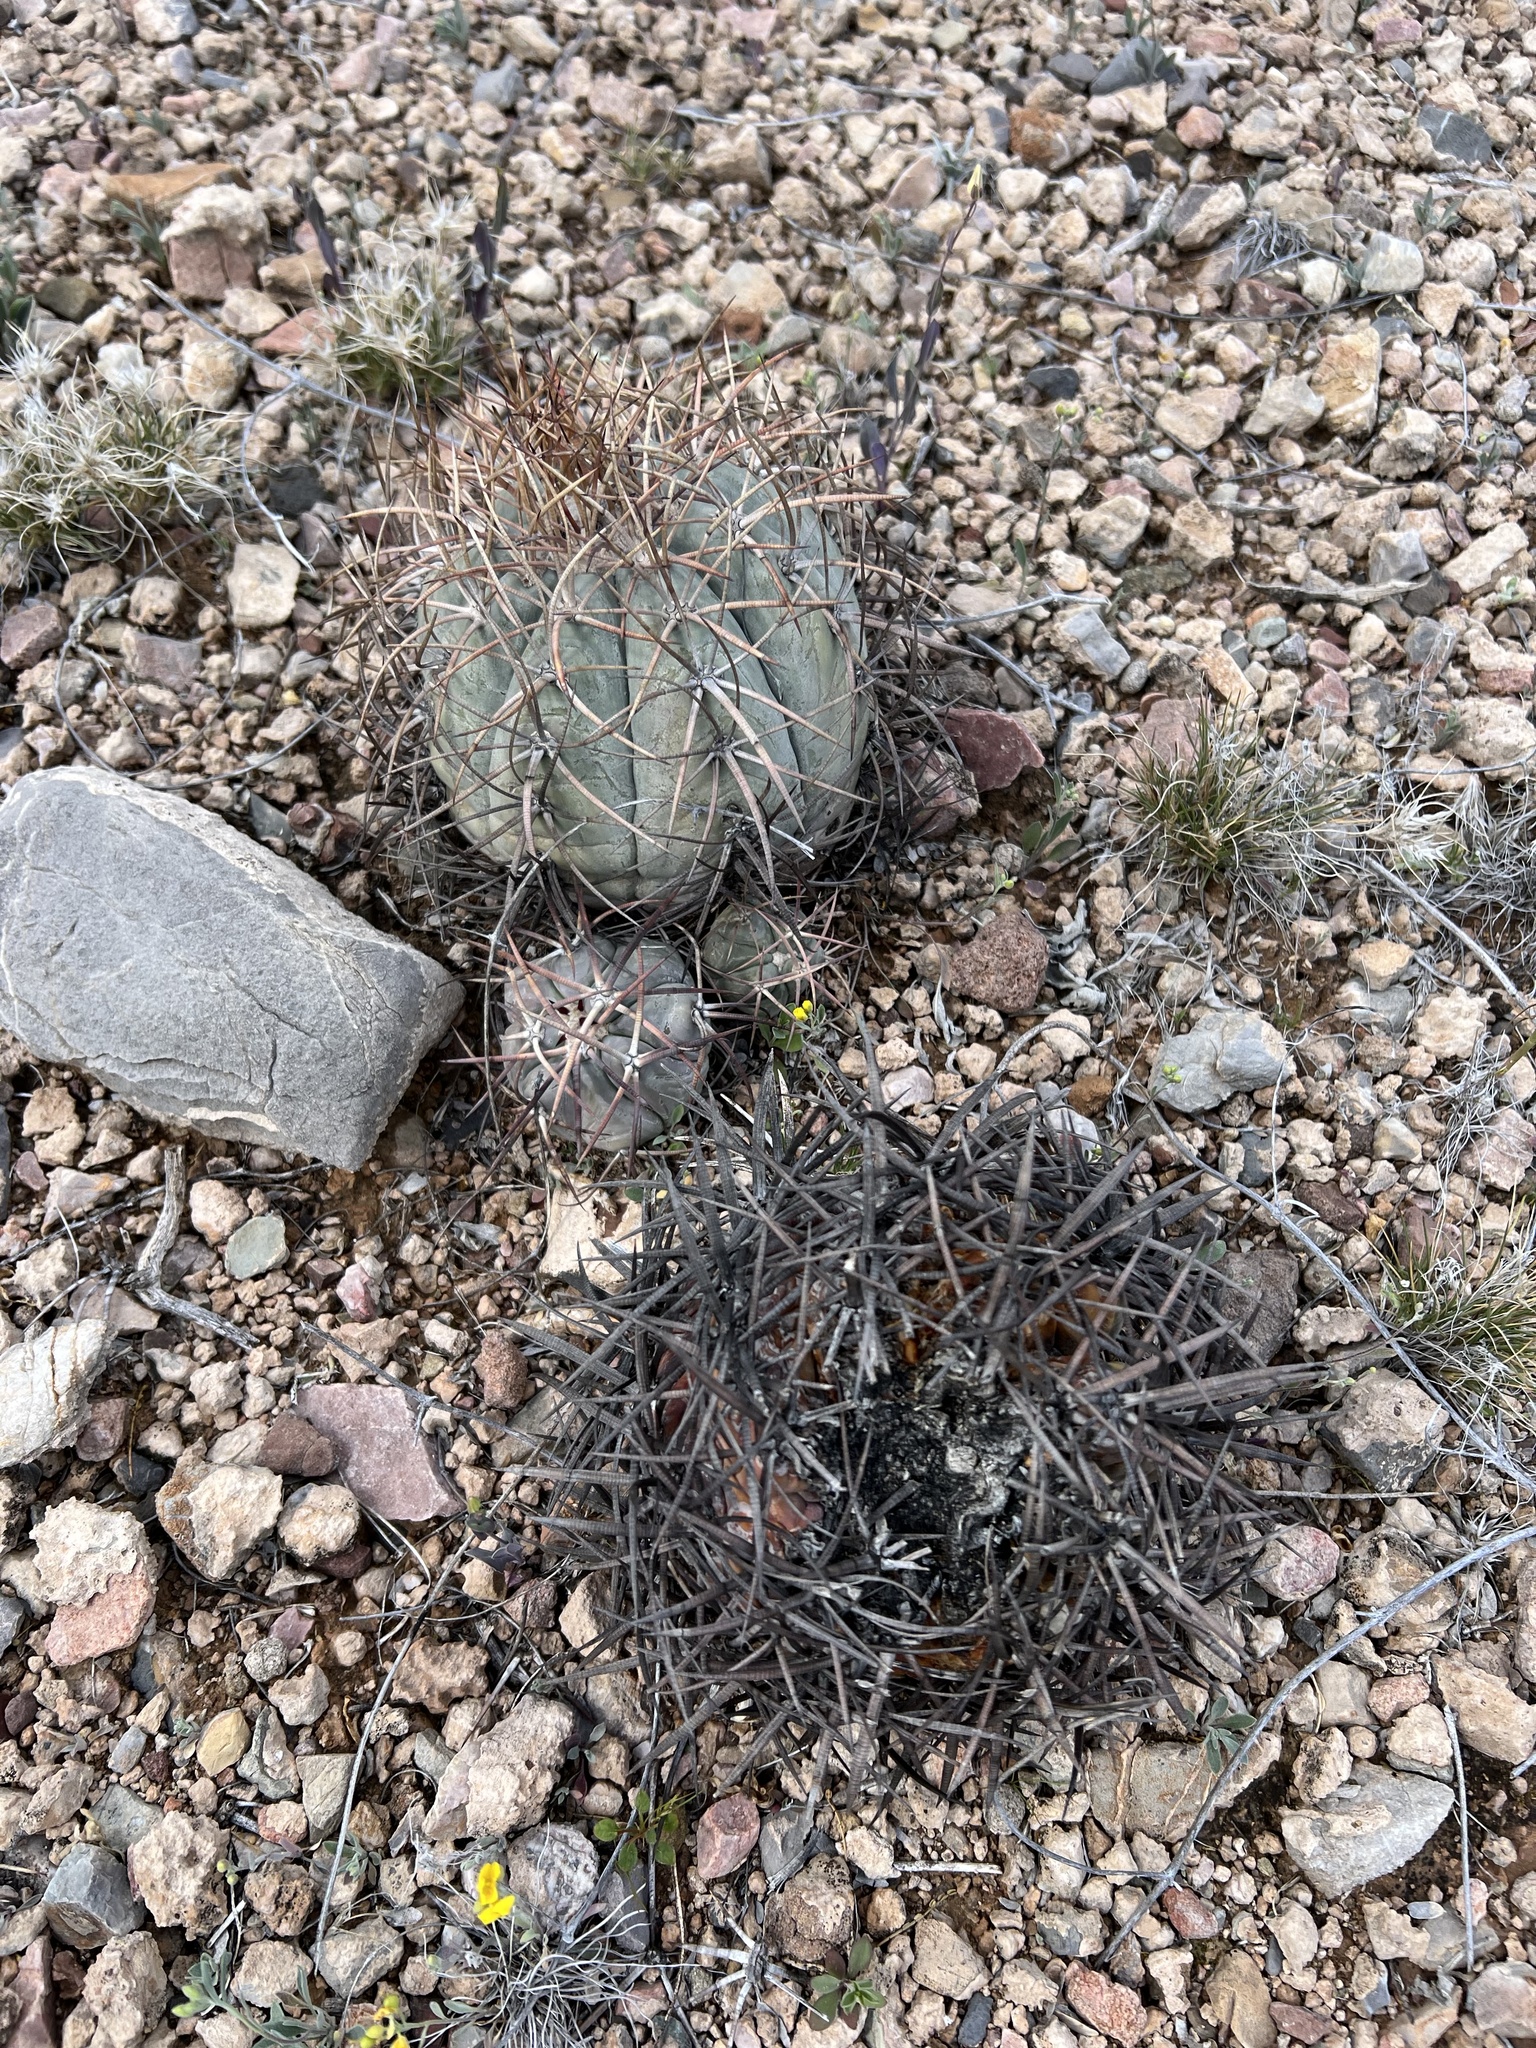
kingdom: Plantae
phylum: Tracheophyta
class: Magnoliopsida
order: Caryophyllales
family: Cactaceae
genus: Echinocactus
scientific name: Echinocactus horizonthalonius
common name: Devilshead
